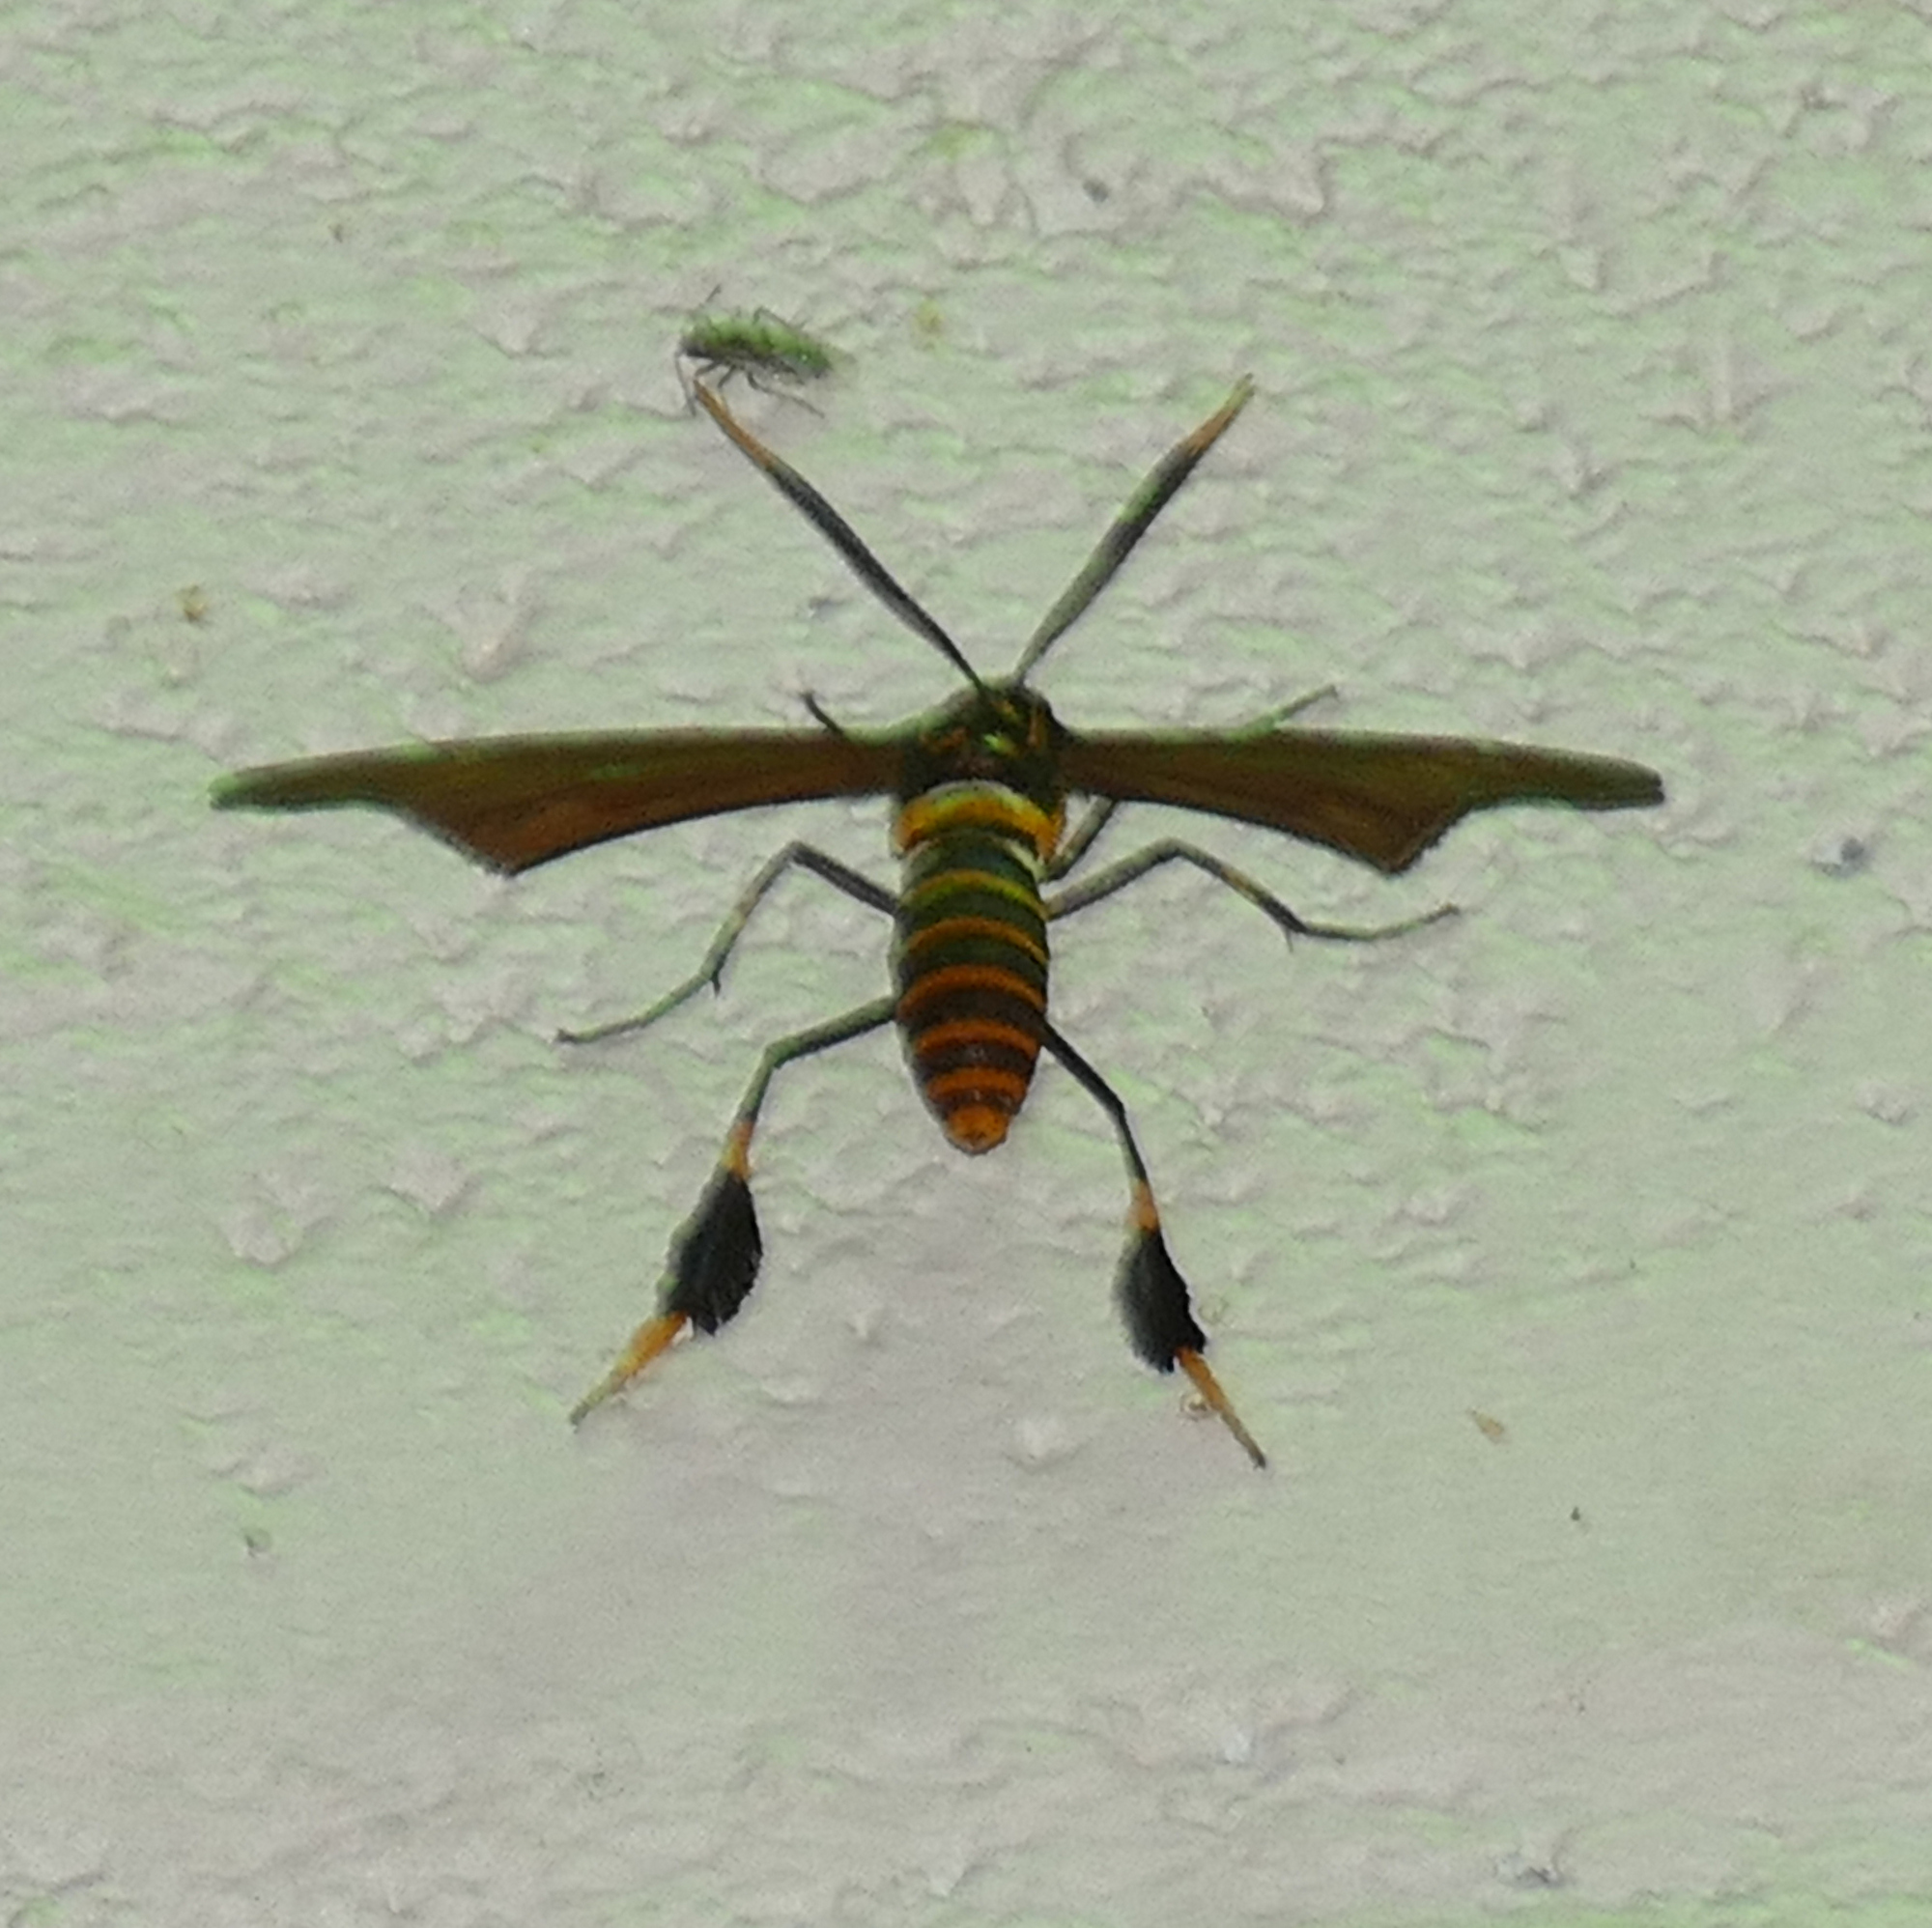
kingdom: Animalia
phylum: Arthropoda
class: Insecta
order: Lepidoptera
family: Erebidae
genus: Horama
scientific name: Horama panthalon
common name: Texas wasp moth
